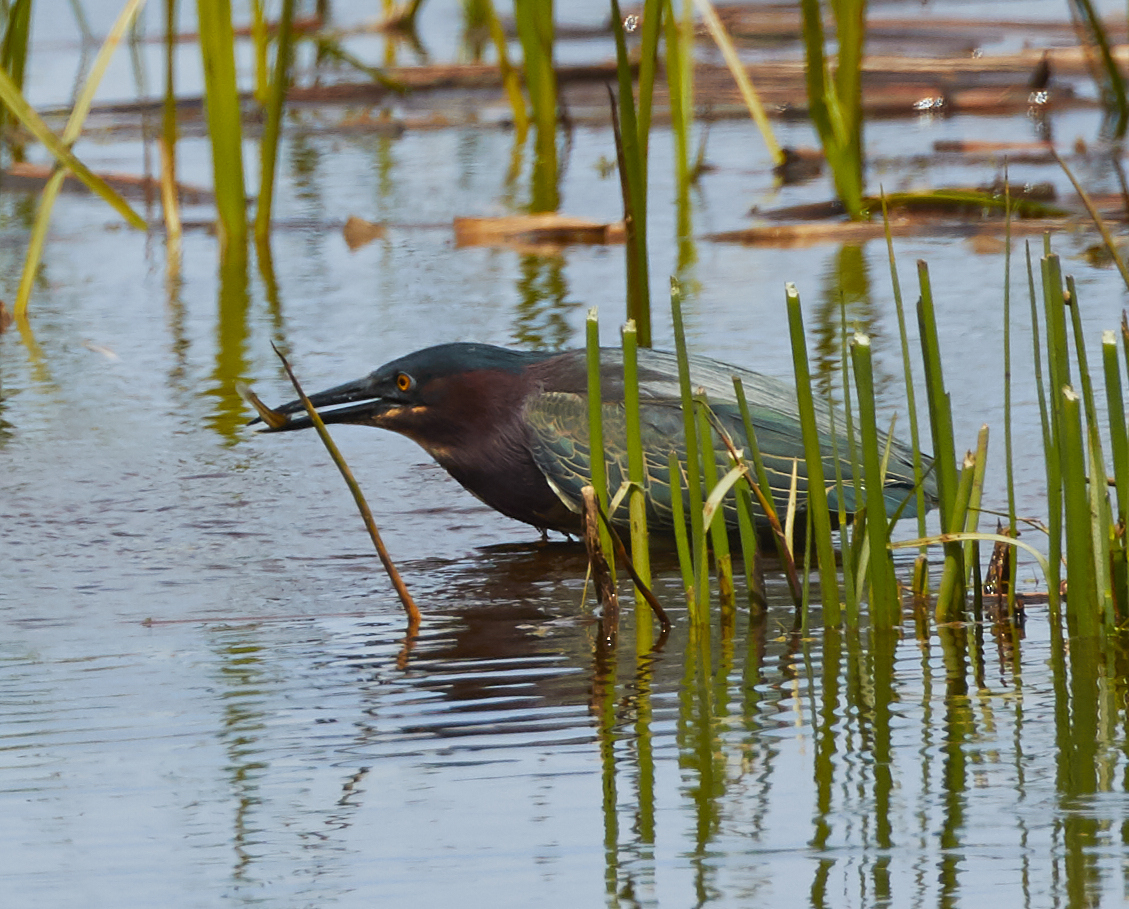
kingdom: Animalia
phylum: Chordata
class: Aves
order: Pelecaniformes
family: Ardeidae
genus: Butorides
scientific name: Butorides virescens
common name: Green heron
